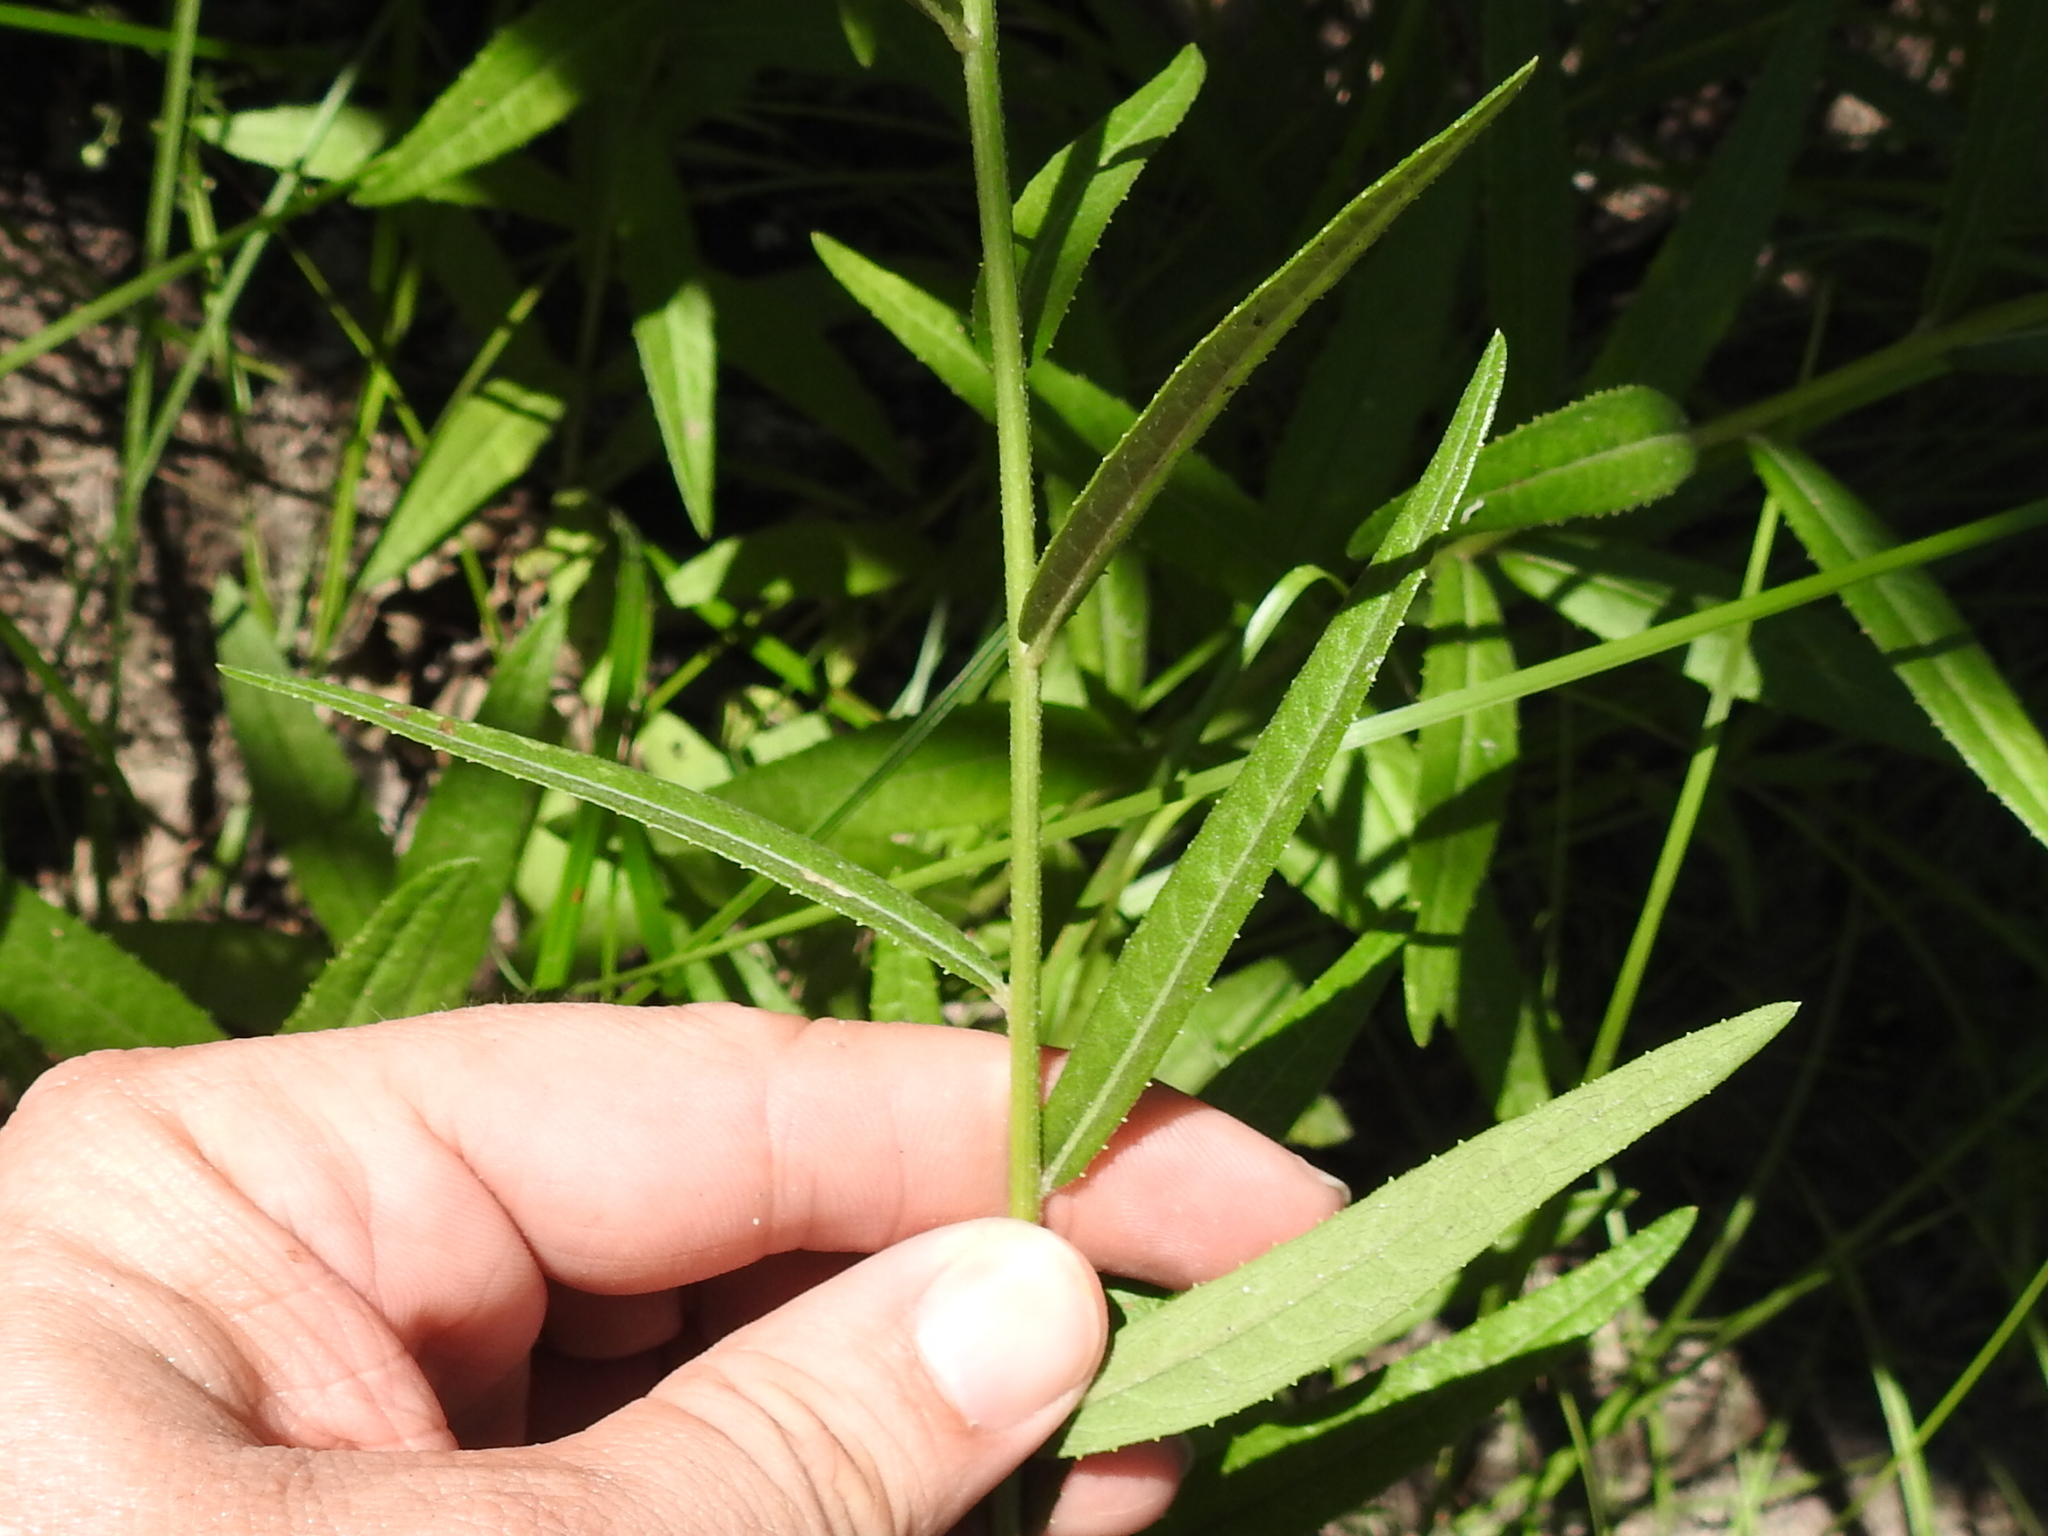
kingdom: Plantae
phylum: Tracheophyta
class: Magnoliopsida
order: Asterales
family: Asteraceae
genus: Vernonia
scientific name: Vernonia texana
